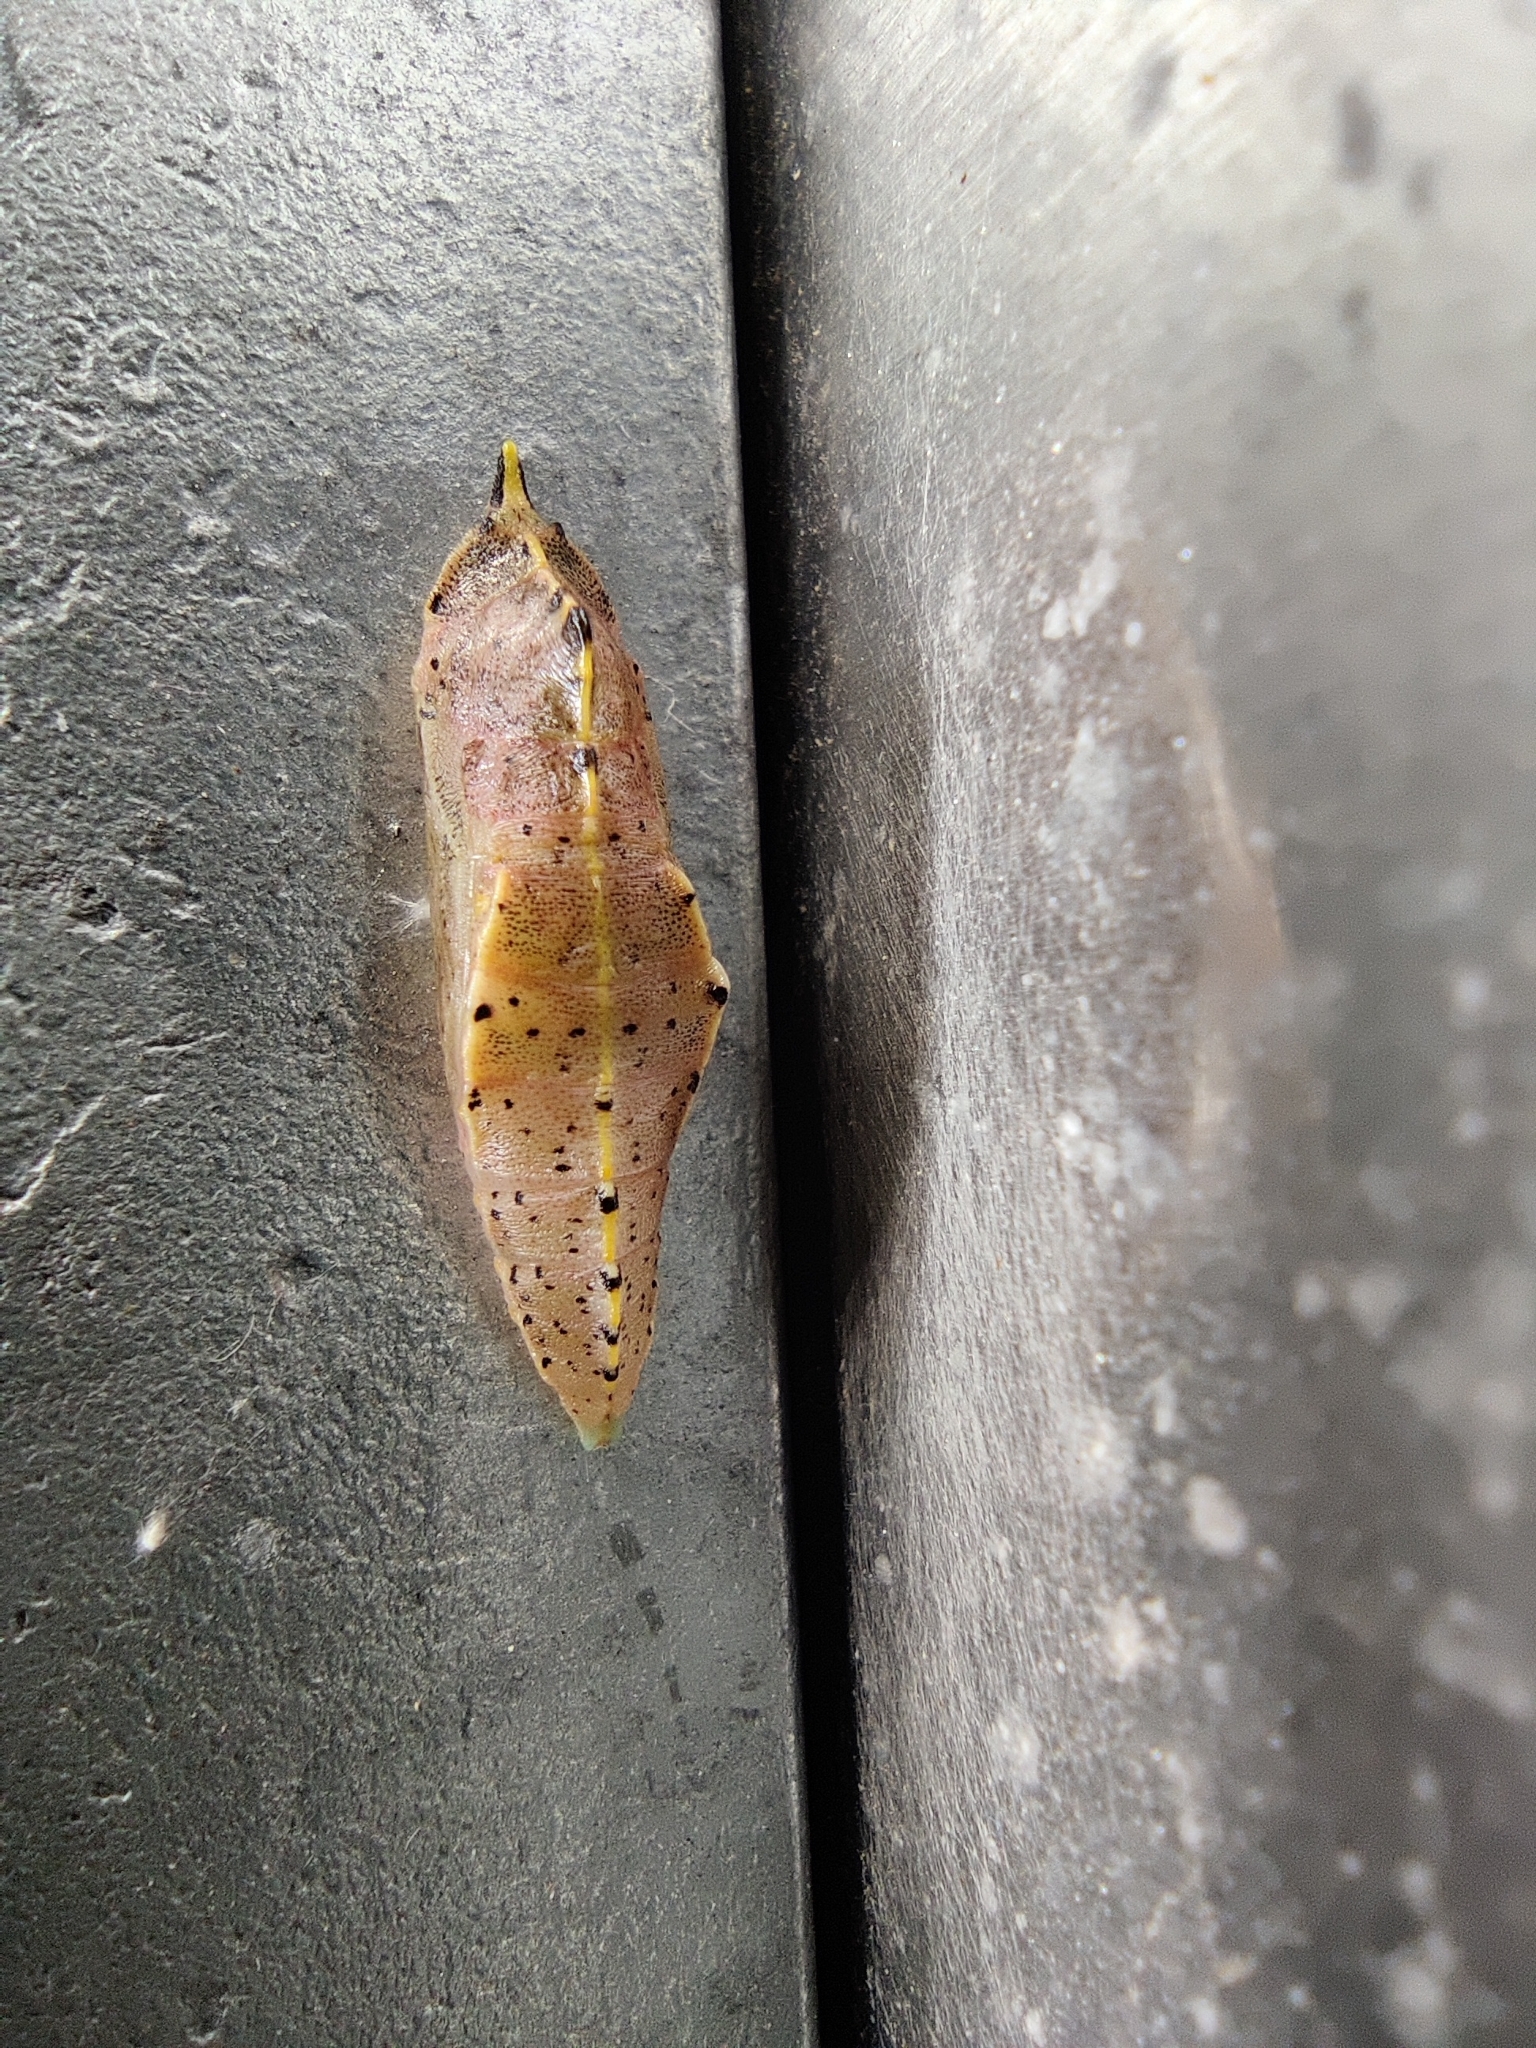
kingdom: Animalia
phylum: Arthropoda
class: Insecta
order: Lepidoptera
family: Pieridae
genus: Pieris
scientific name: Pieris rapae
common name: Small white
